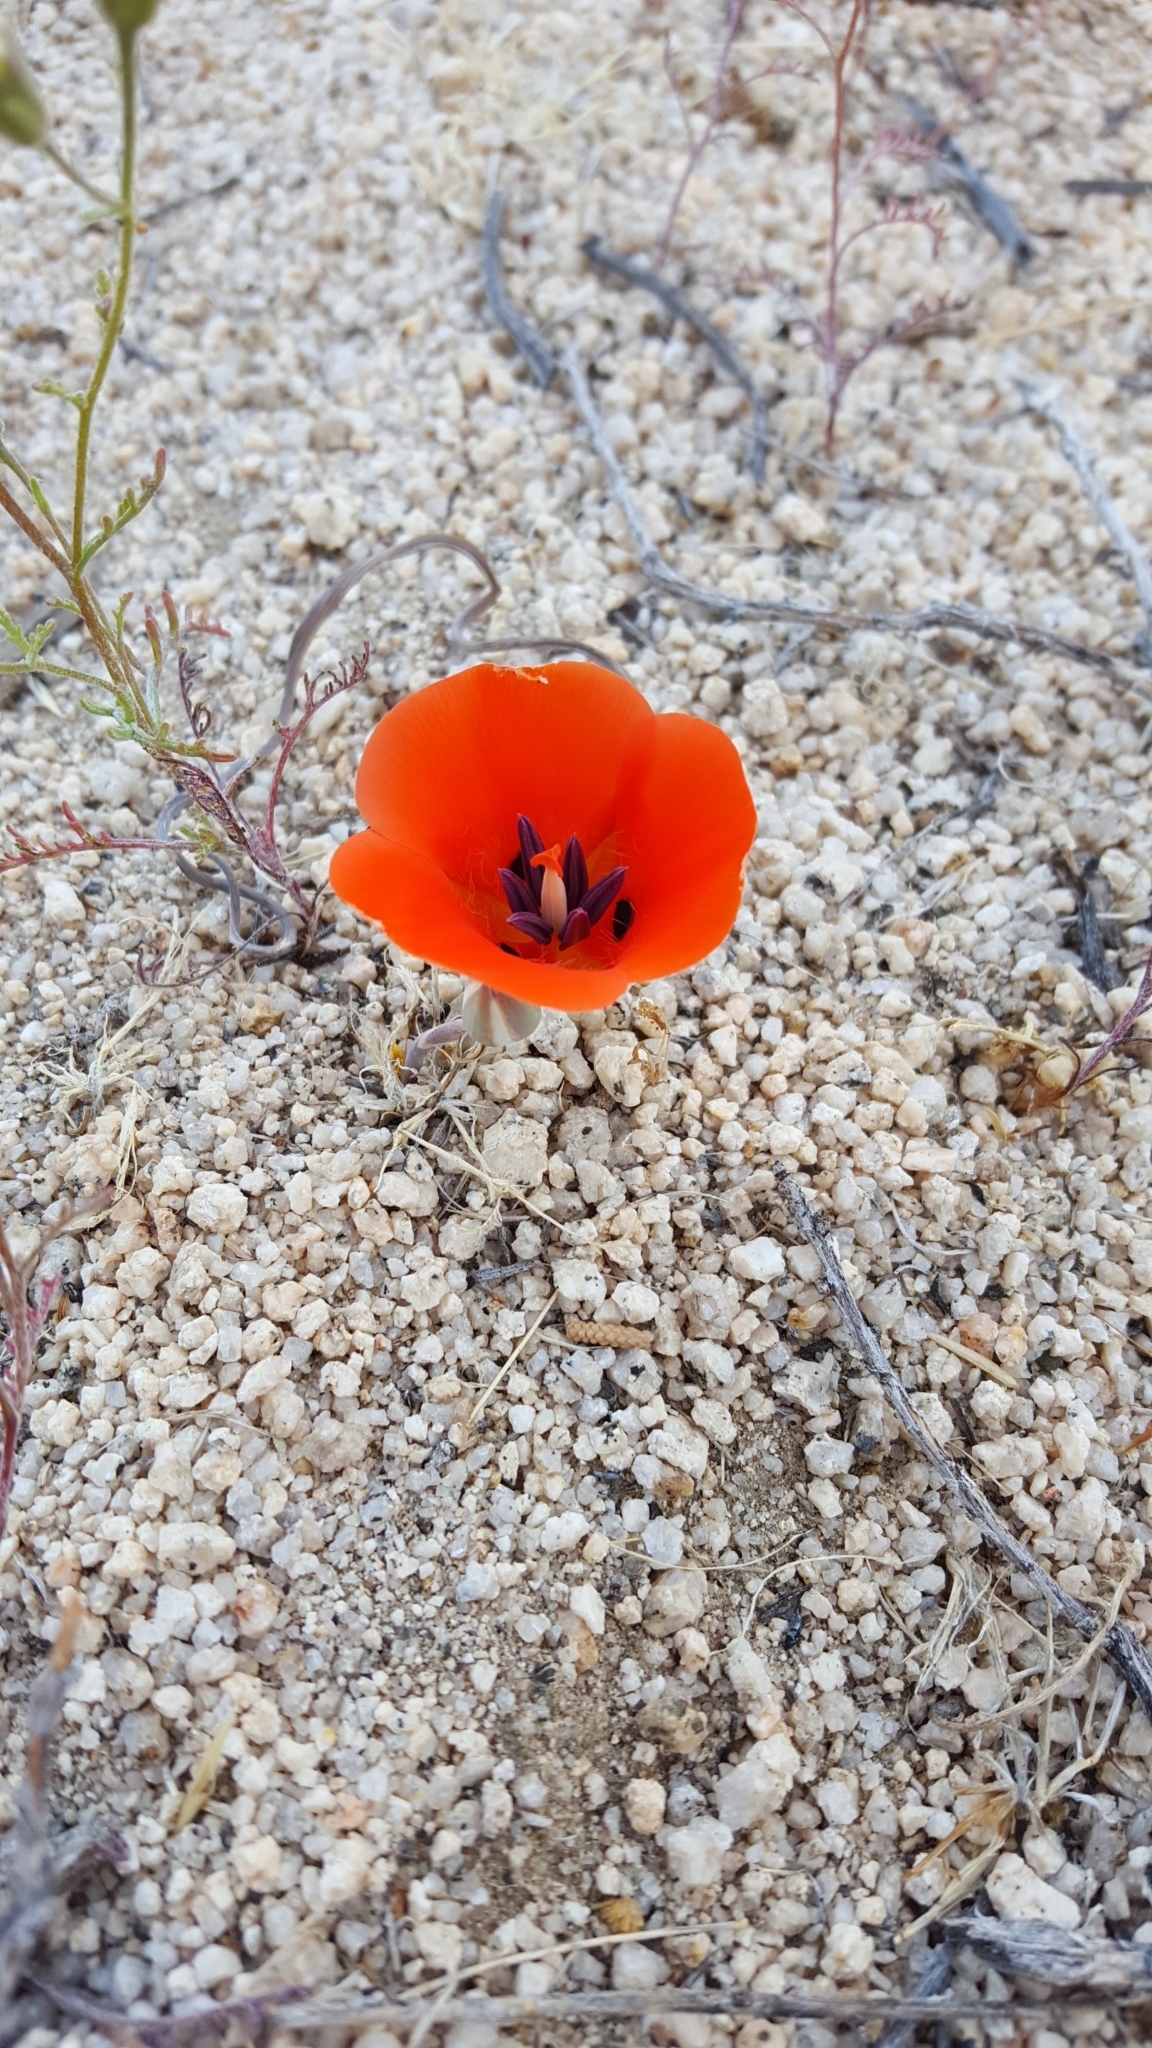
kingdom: Plantae
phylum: Tracheophyta
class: Liliopsida
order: Liliales
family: Liliaceae
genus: Calochortus
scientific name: Calochortus kennedyi
